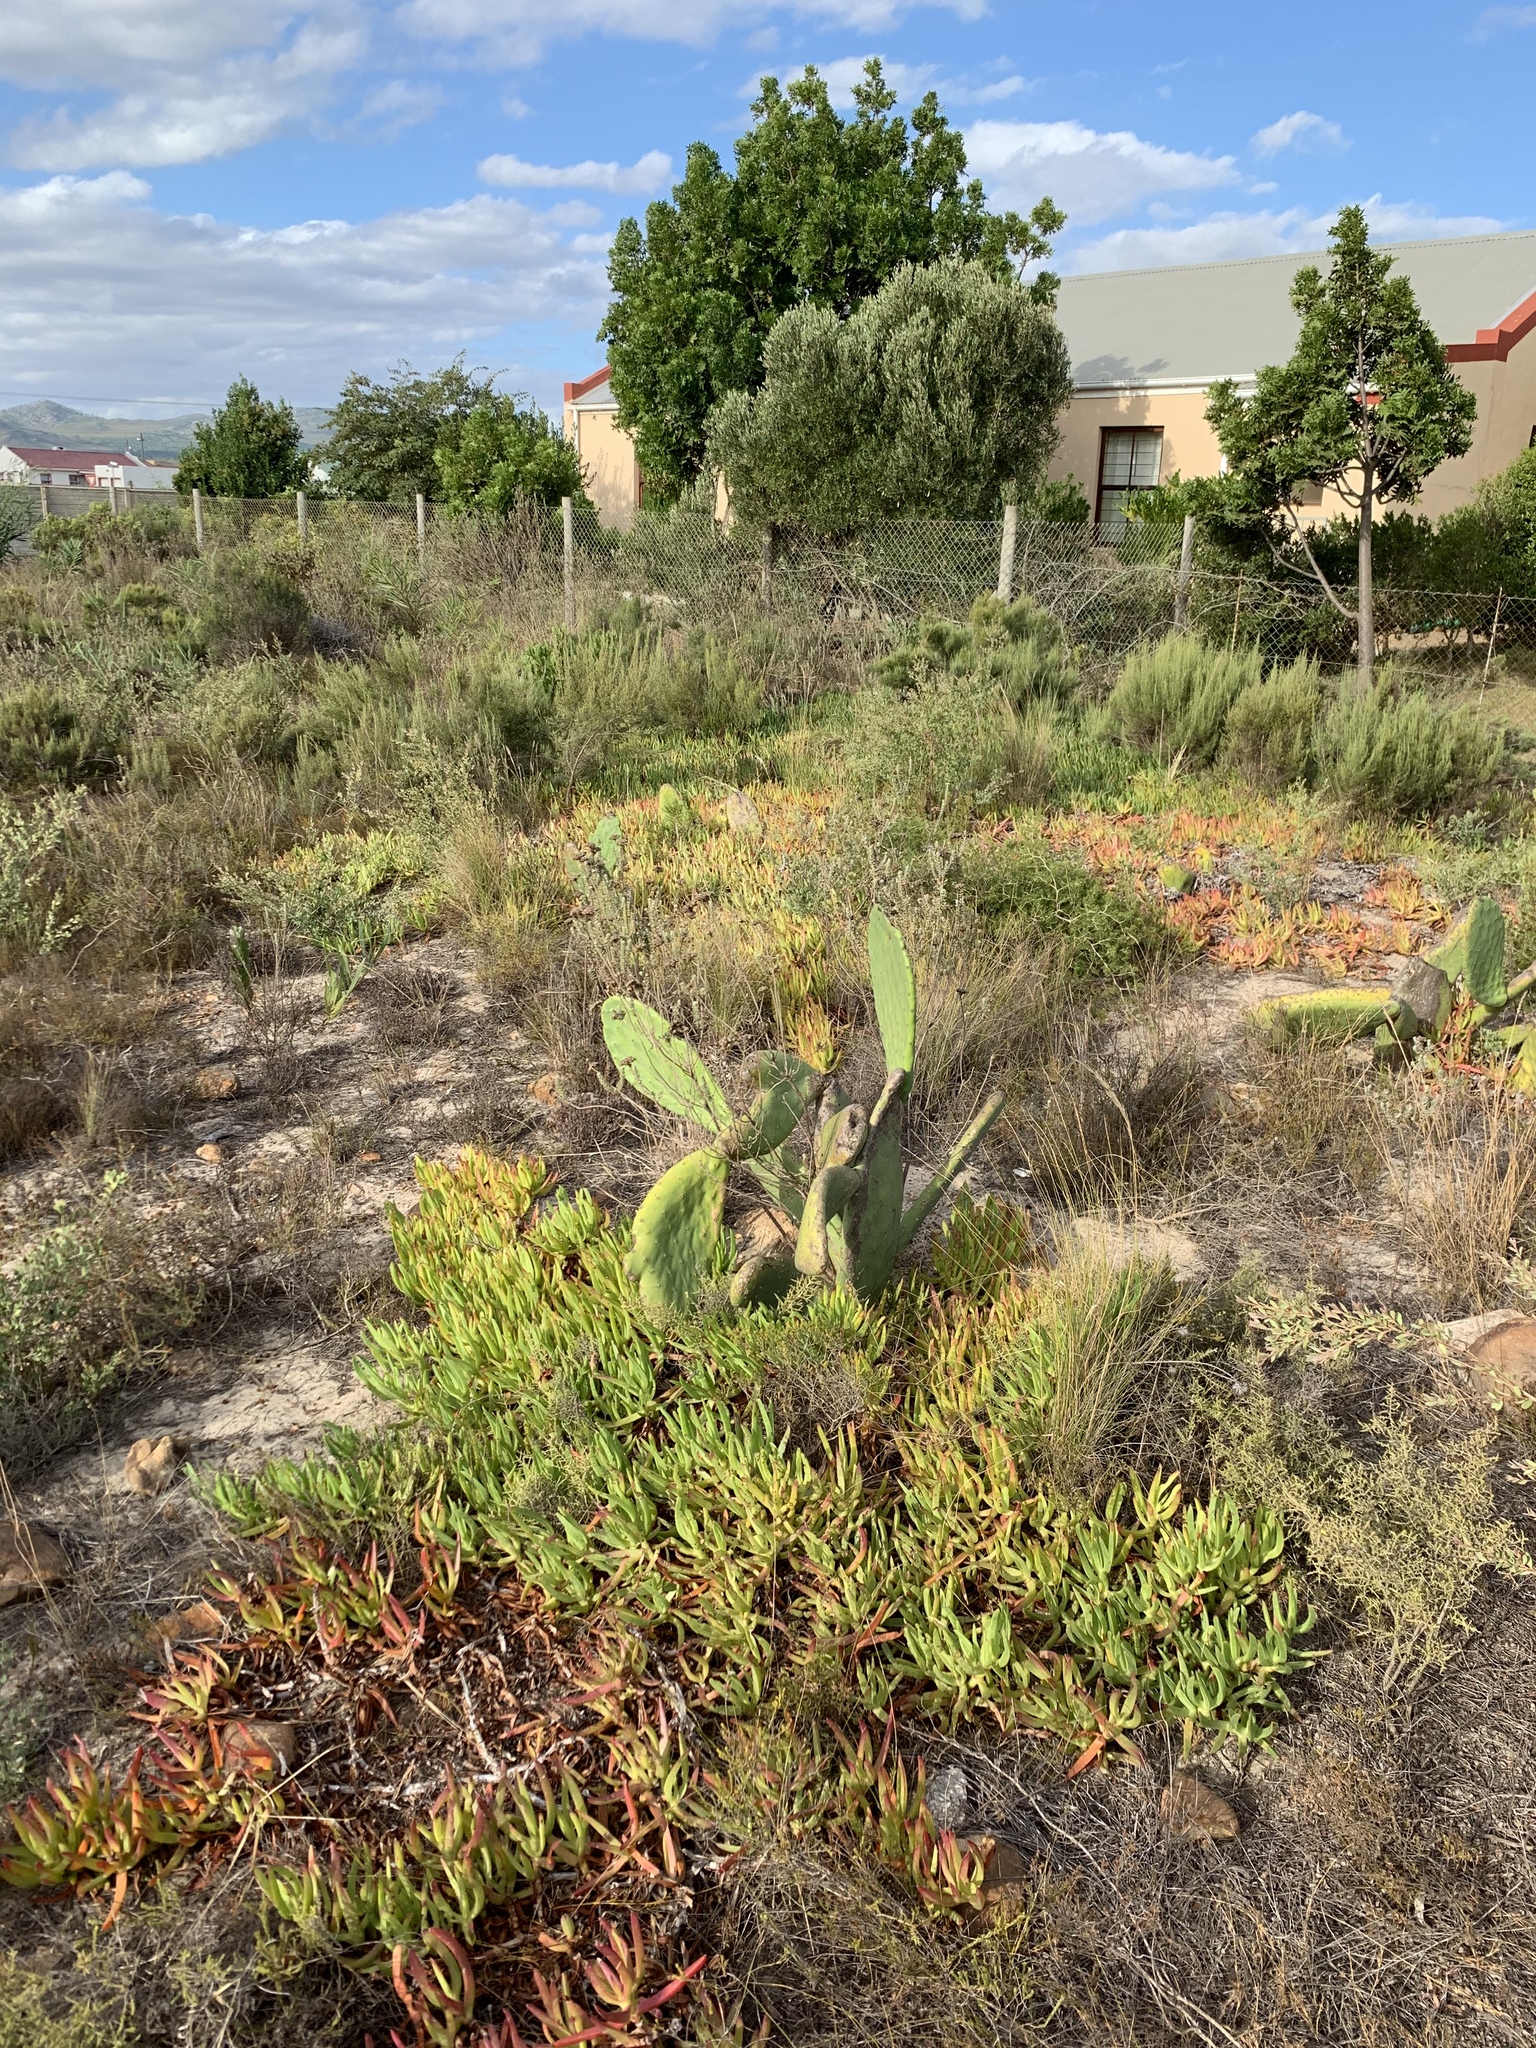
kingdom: Plantae
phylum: Tracheophyta
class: Magnoliopsida
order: Caryophyllales
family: Cactaceae
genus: Opuntia
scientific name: Opuntia ficus-indica
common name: Barbary fig
